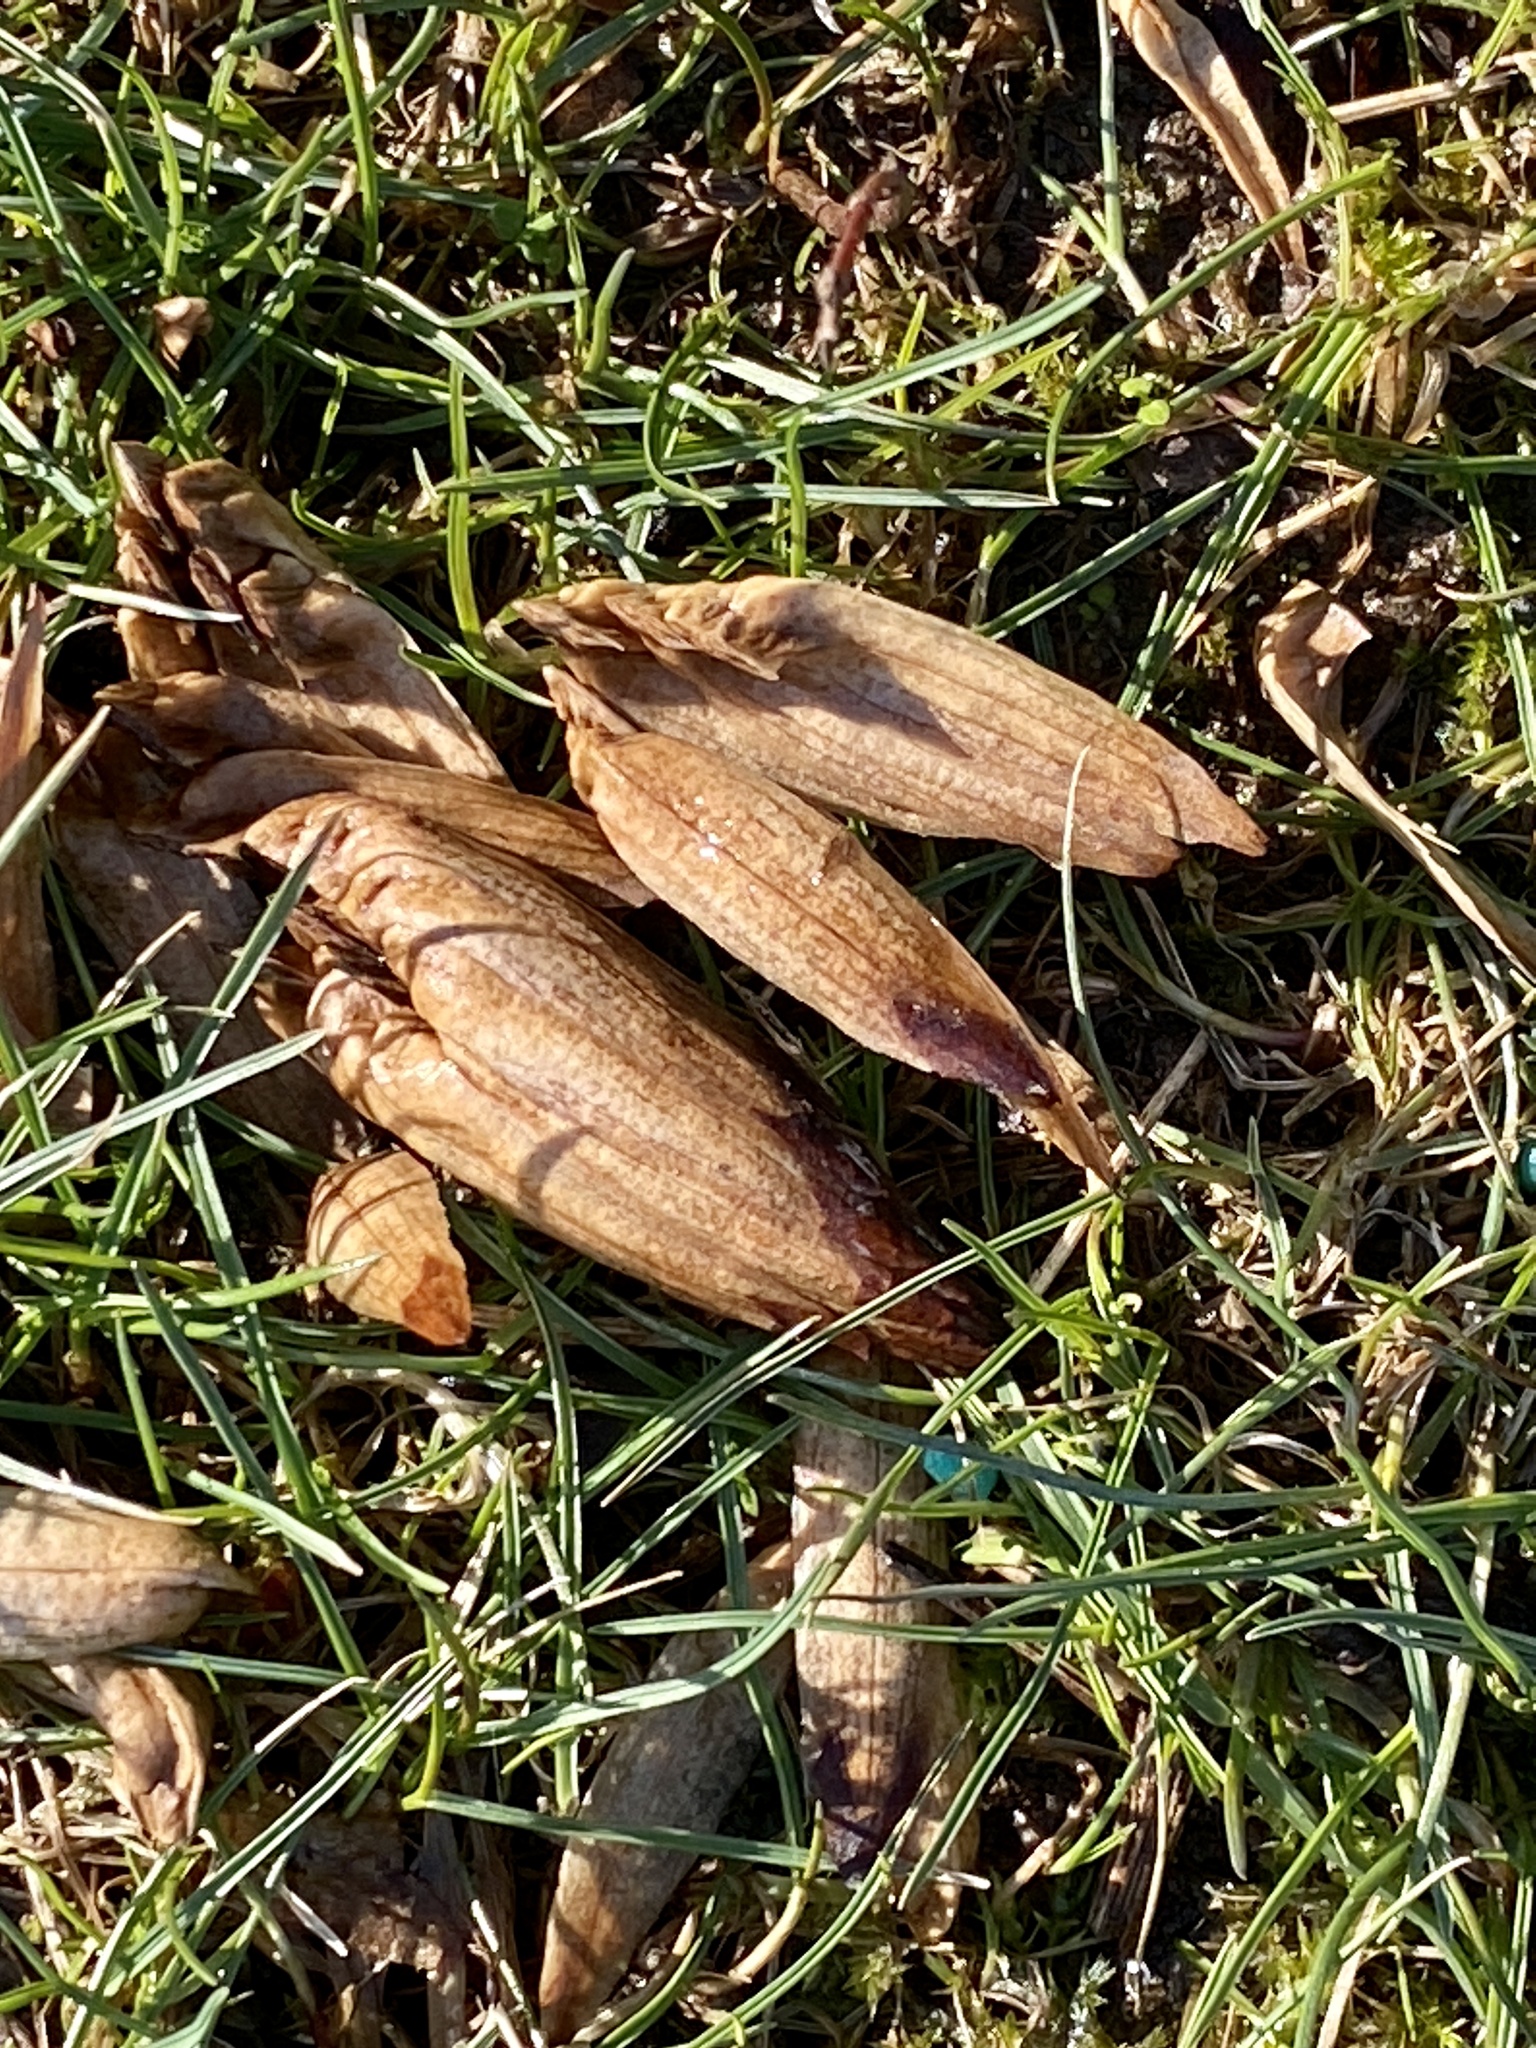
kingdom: Plantae
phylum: Tracheophyta
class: Magnoliopsida
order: Magnoliales
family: Magnoliaceae
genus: Liriodendron
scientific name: Liriodendron tulipifera
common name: Tulip tree
